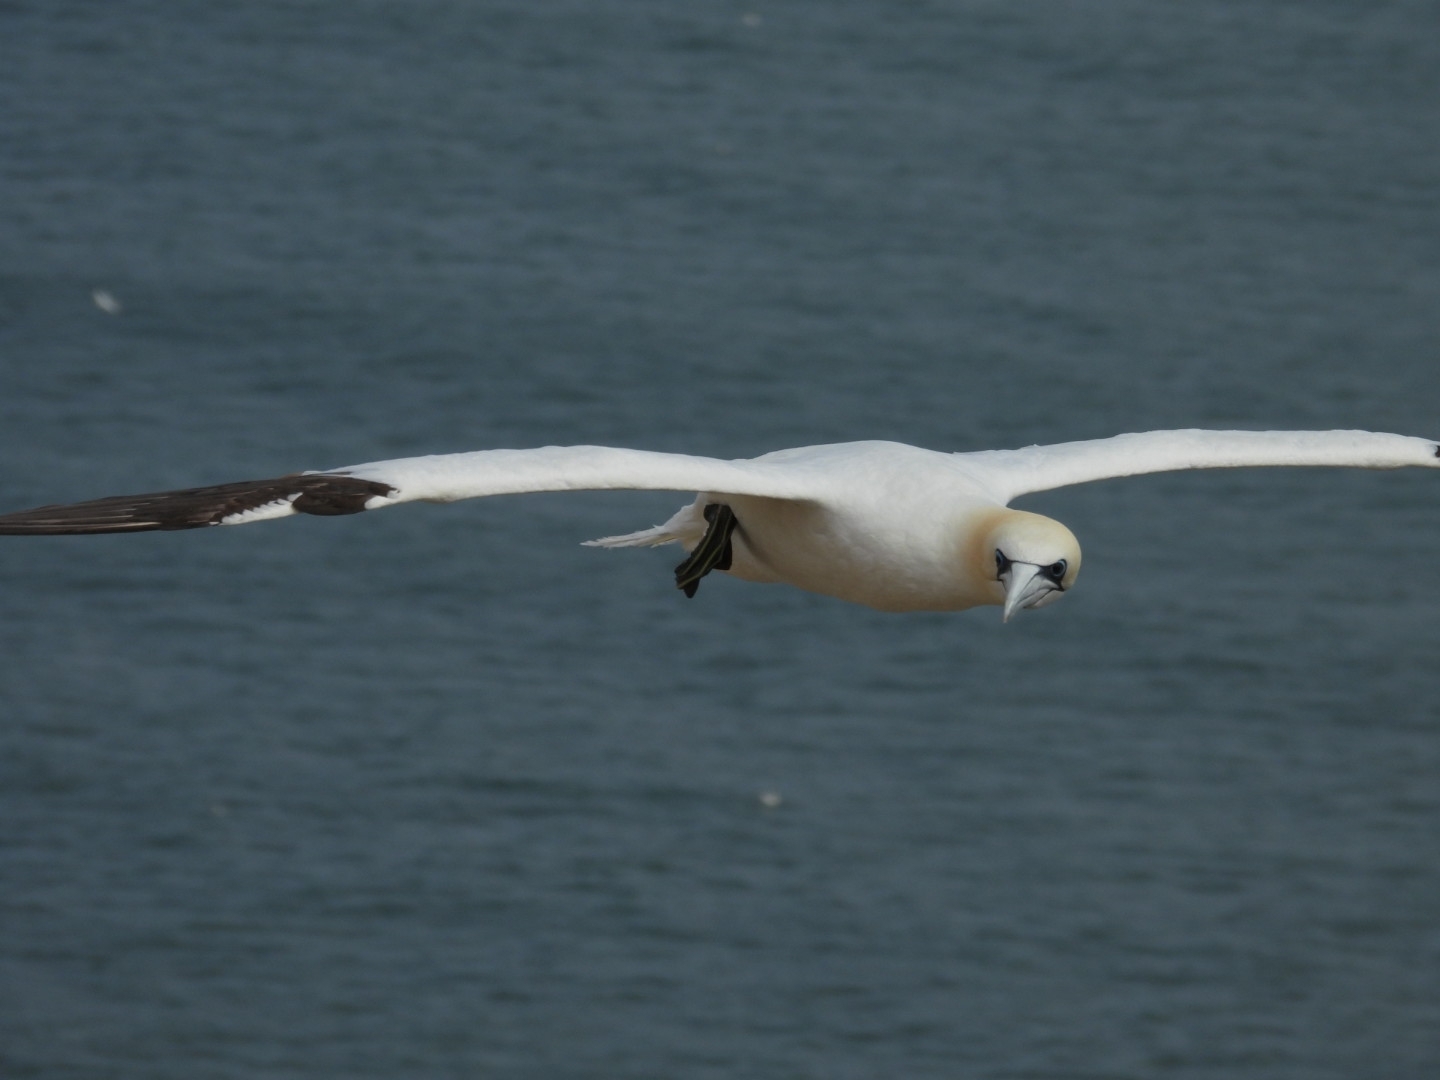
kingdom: Animalia
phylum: Chordata
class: Aves
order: Suliformes
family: Sulidae
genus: Morus
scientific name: Morus bassanus
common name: Northern gannet
